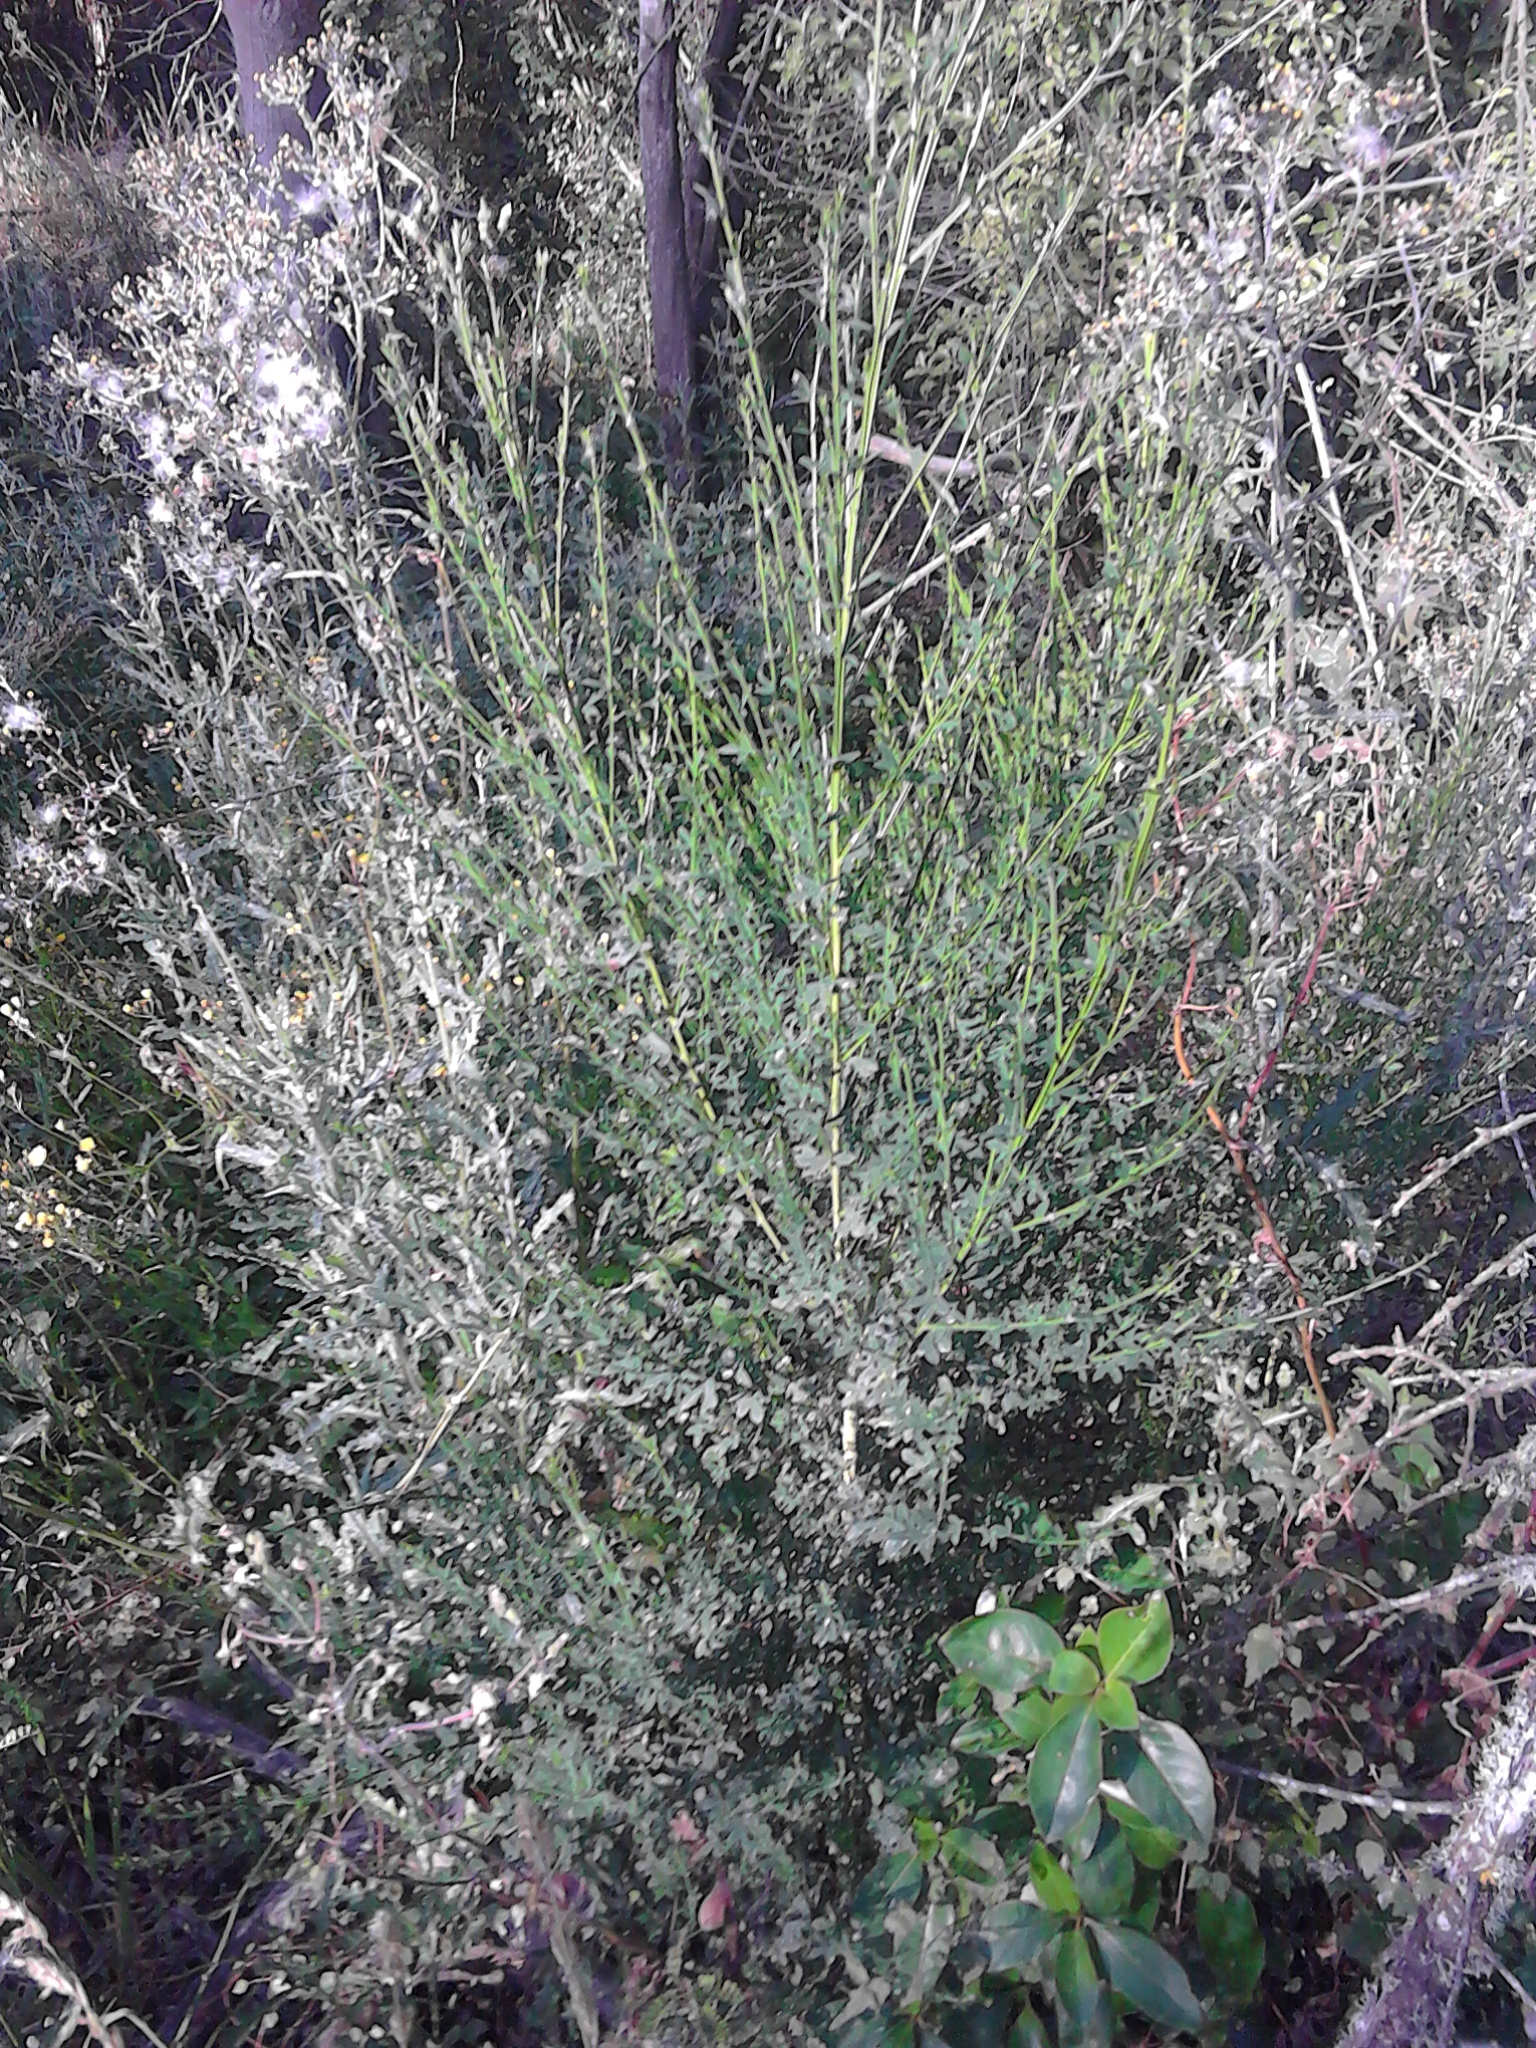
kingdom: Plantae
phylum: Tracheophyta
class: Magnoliopsida
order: Fabales
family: Fabaceae
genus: Cytisus
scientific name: Cytisus scoparius
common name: Scotch broom
